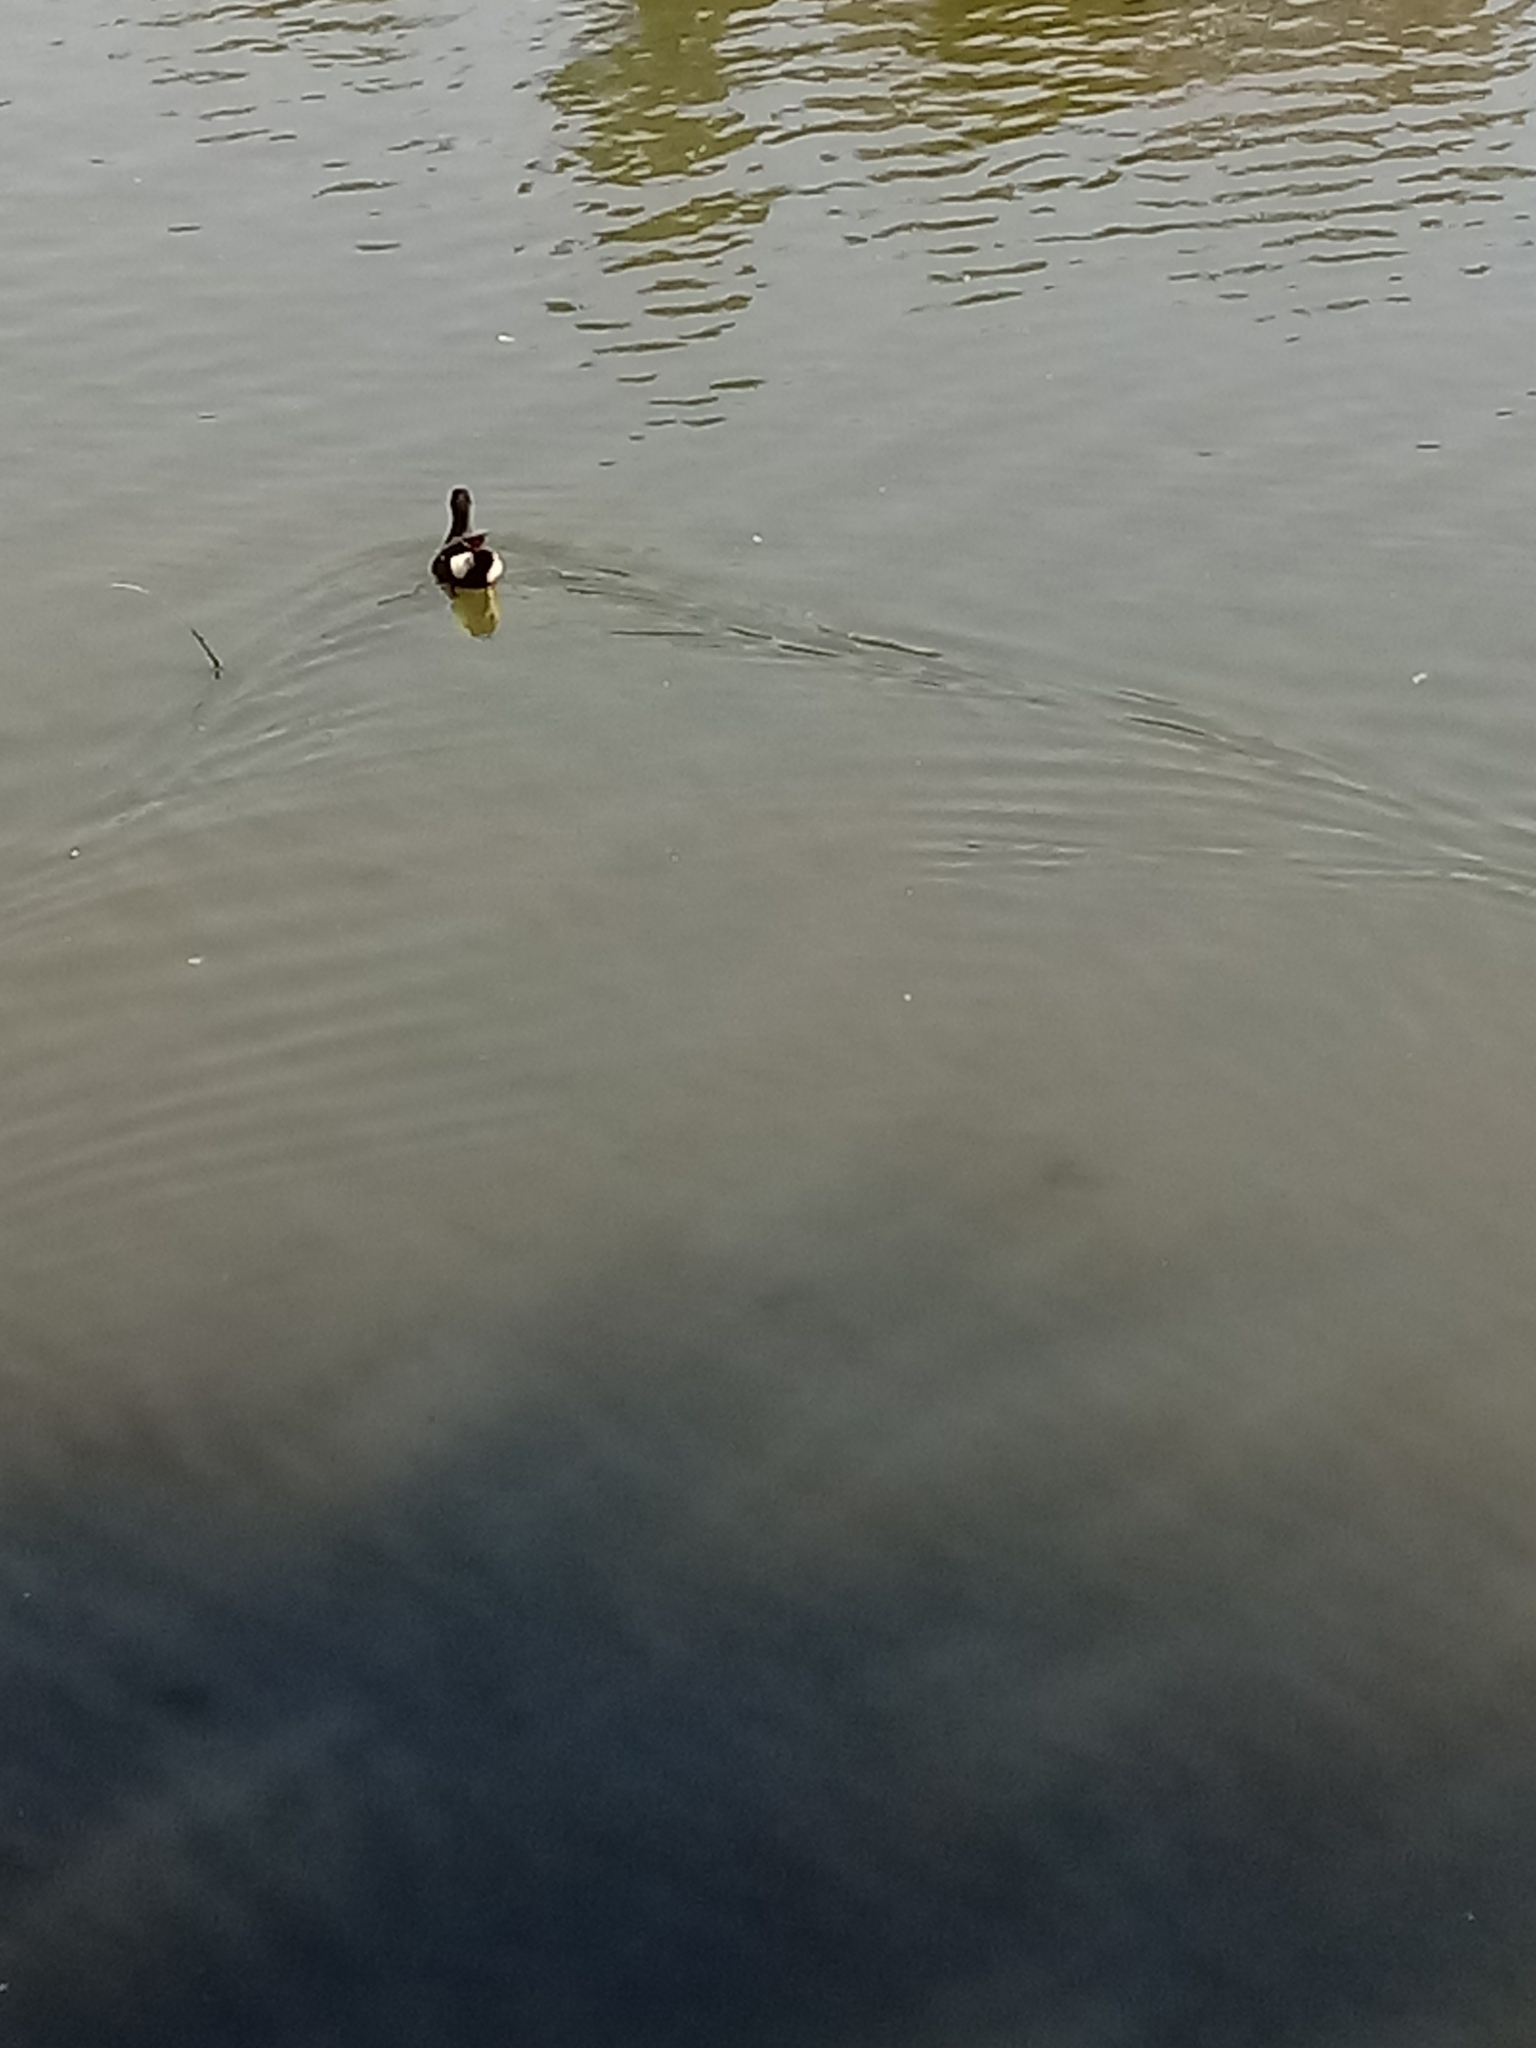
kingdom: Animalia
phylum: Chordata
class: Aves
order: Anseriformes
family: Anatidae
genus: Anas
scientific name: Anas platyrhynchos
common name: Mallard
